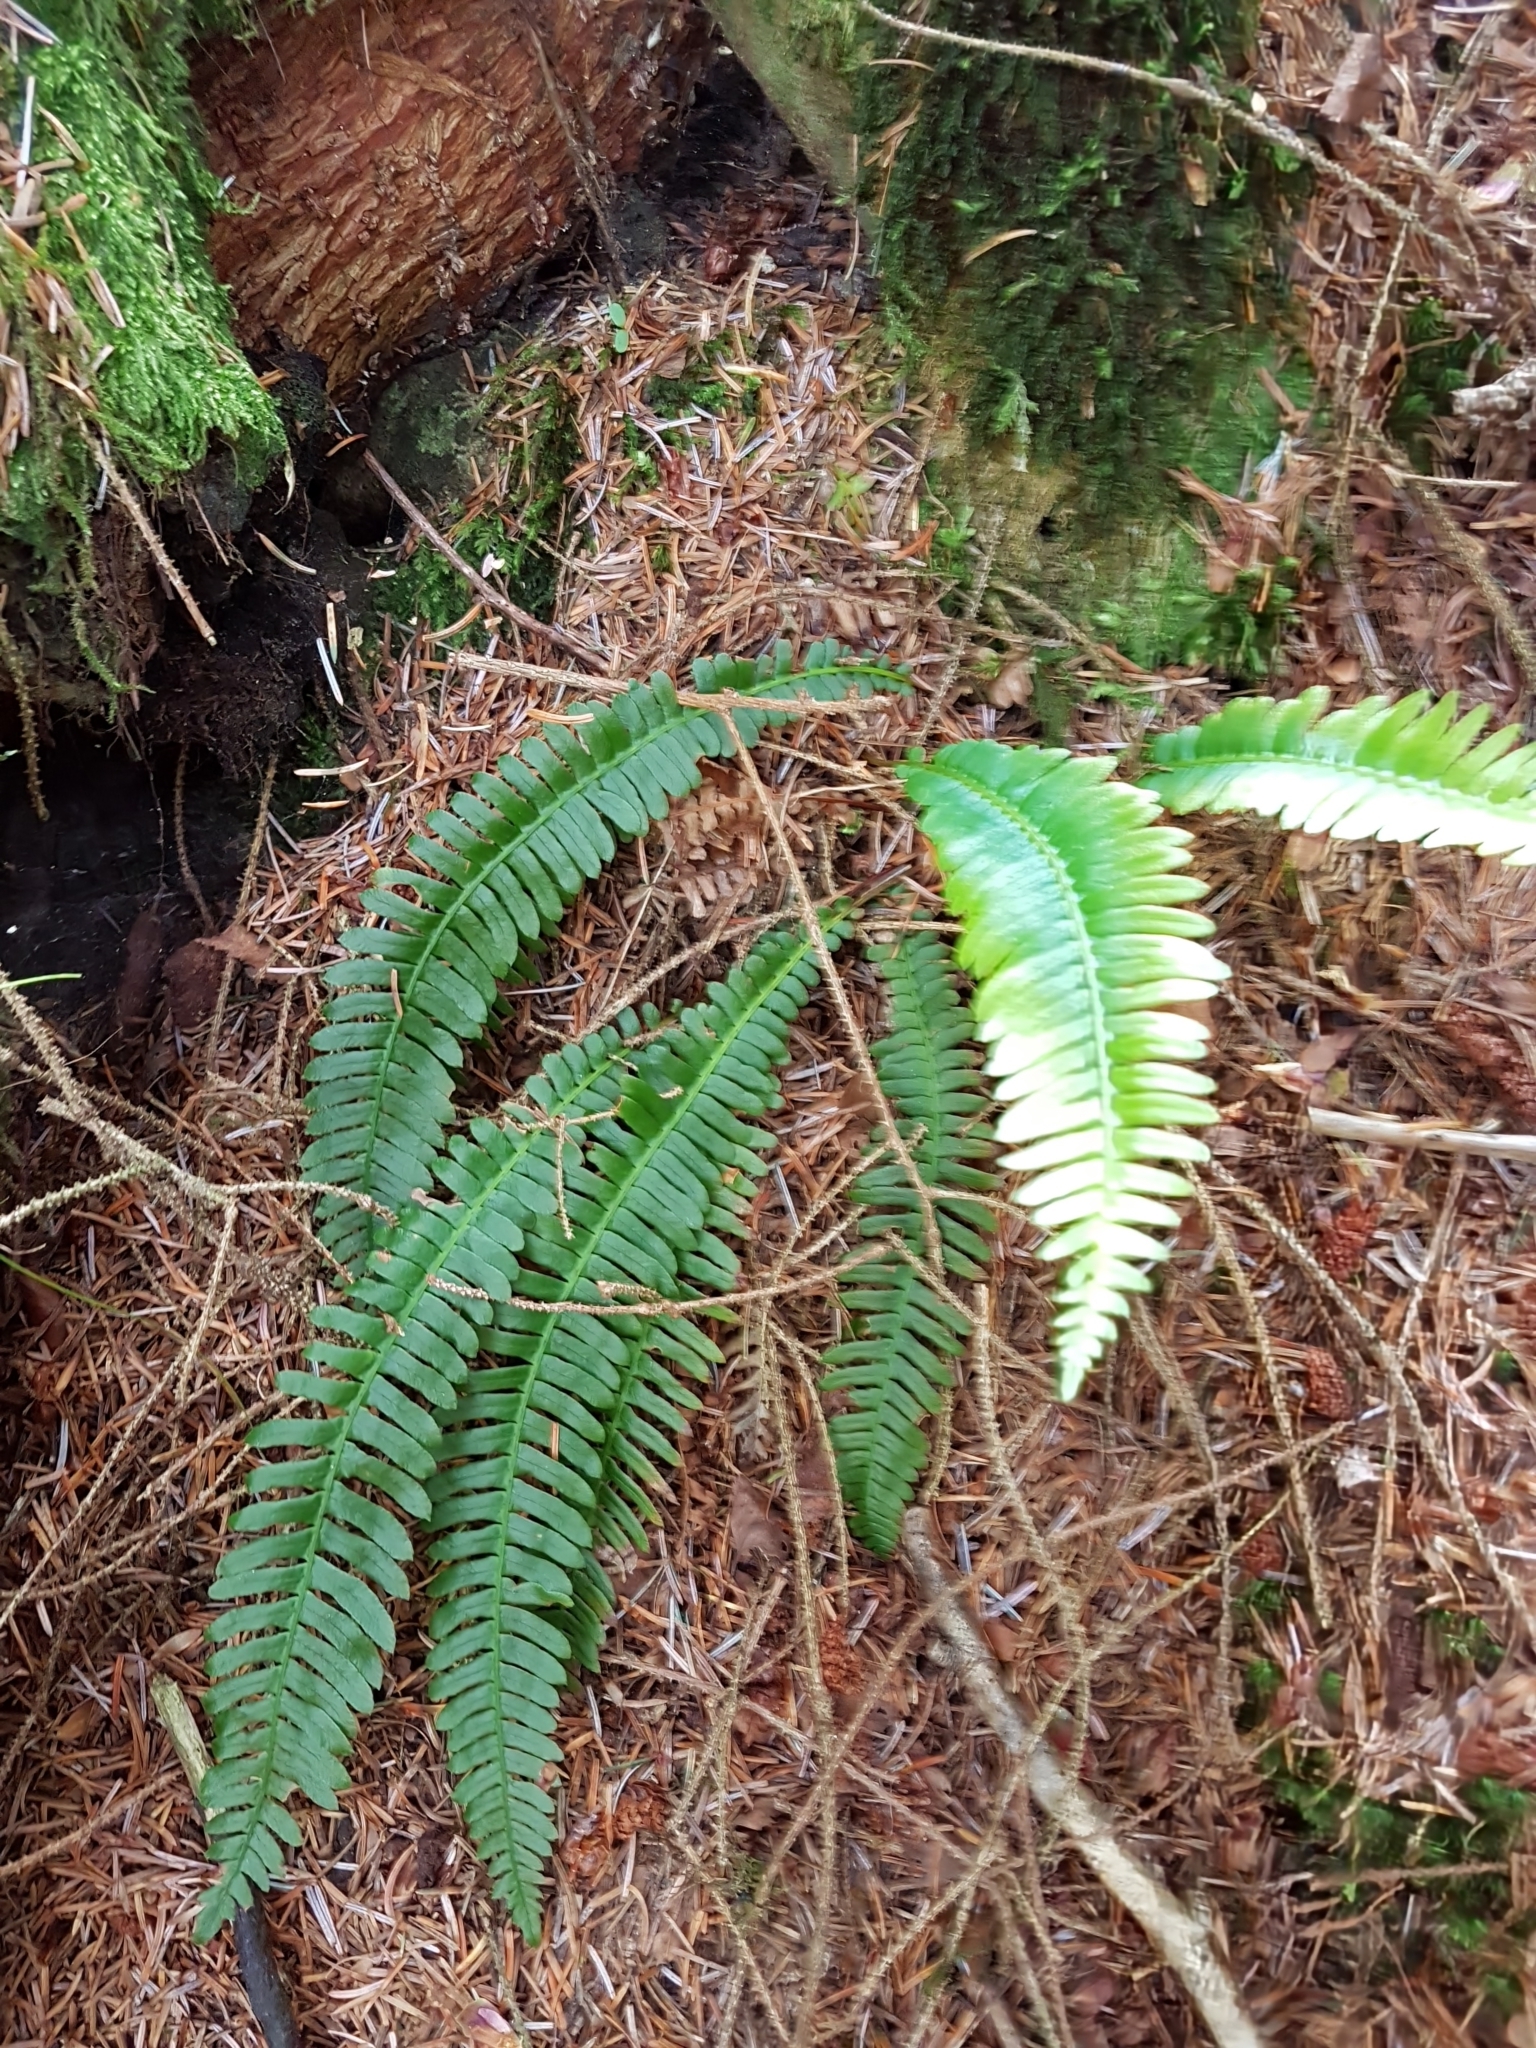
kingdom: Plantae
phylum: Tracheophyta
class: Polypodiopsida
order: Polypodiales
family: Blechnaceae
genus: Struthiopteris
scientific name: Struthiopteris spicant
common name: Deer fern
